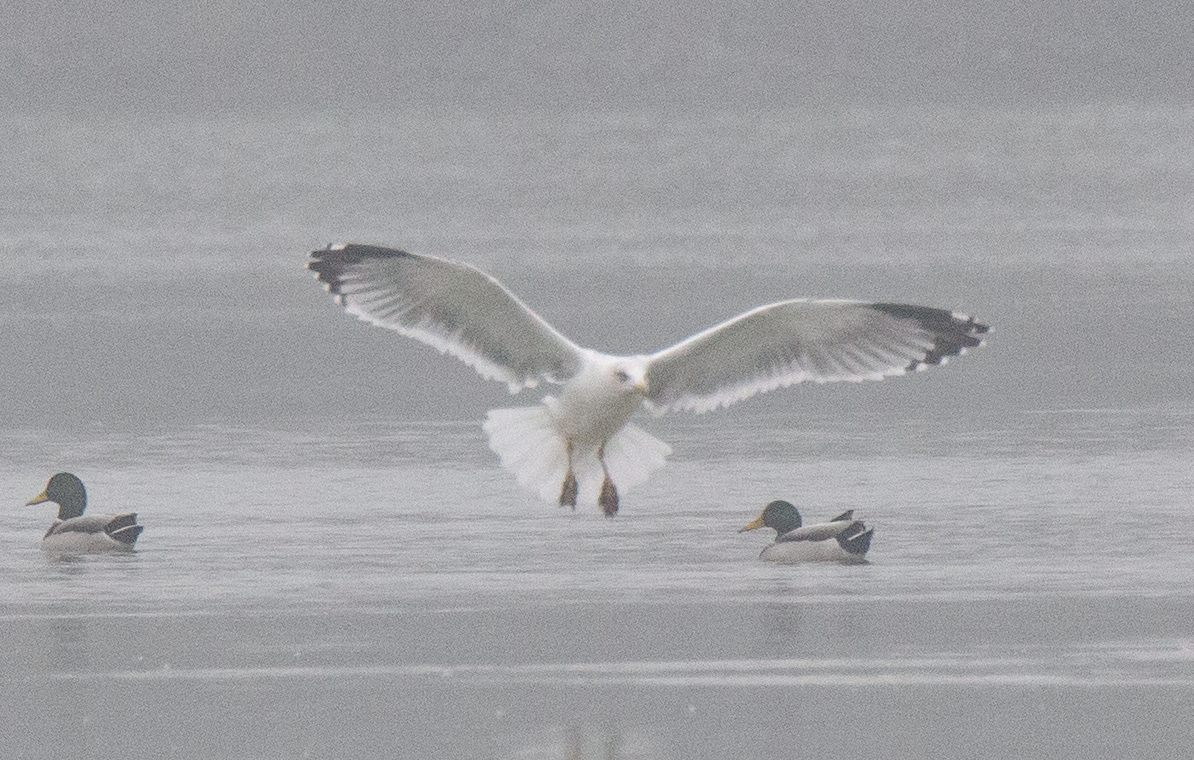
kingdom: Animalia
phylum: Chordata
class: Aves
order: Charadriiformes
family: Laridae
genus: Larus
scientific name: Larus michahellis
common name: Yellow-legged gull
